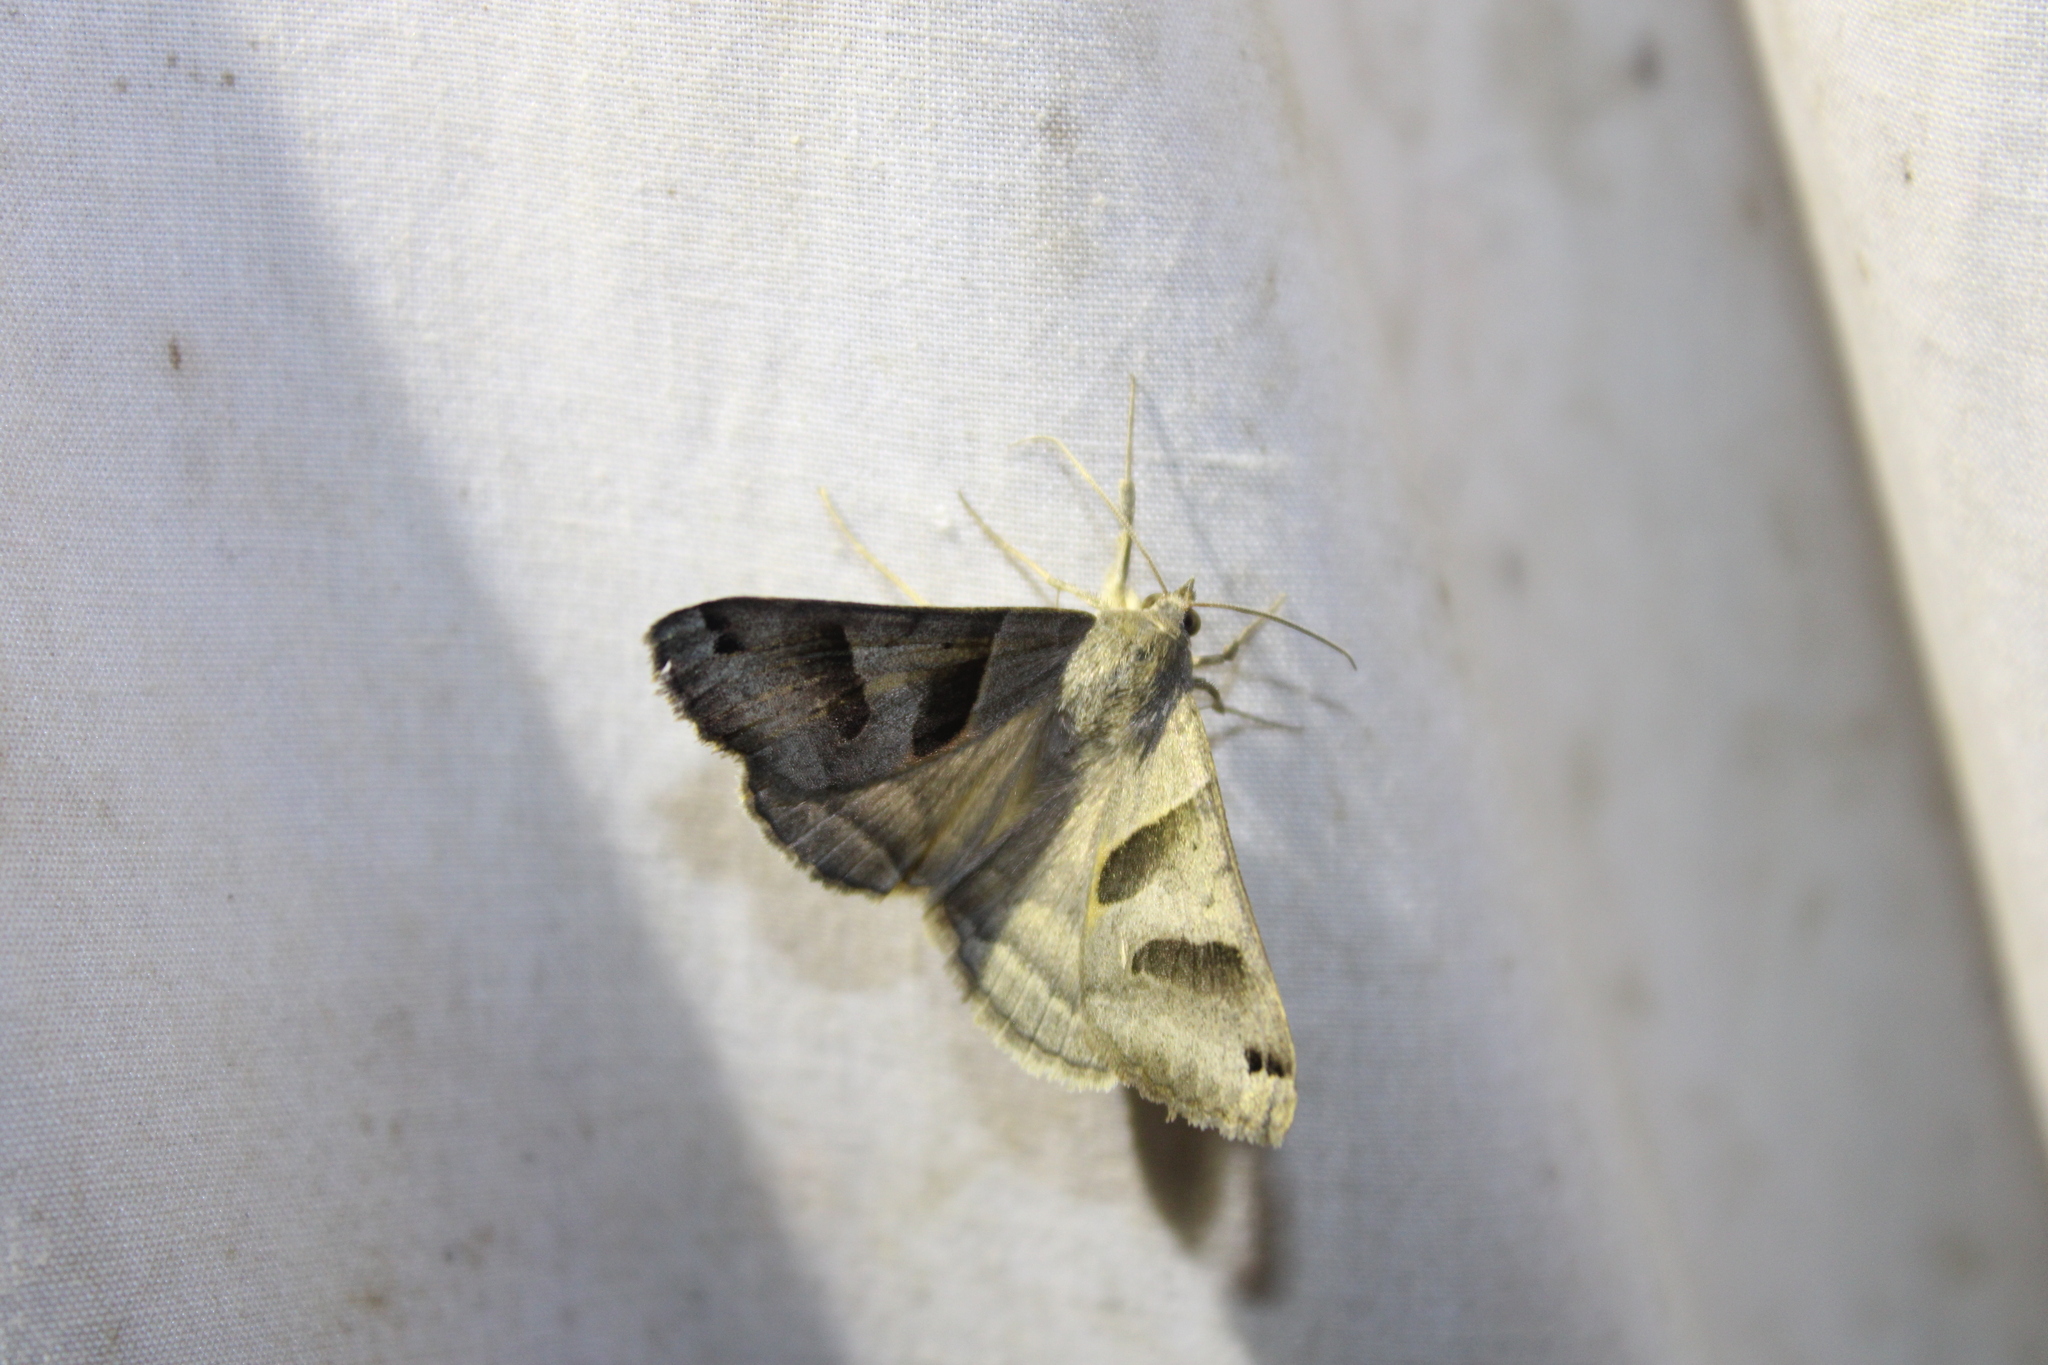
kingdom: Animalia
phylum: Arthropoda
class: Insecta
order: Lepidoptera
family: Erebidae
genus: Caenurgina
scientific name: Caenurgina erechtea
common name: Forage looper moth
